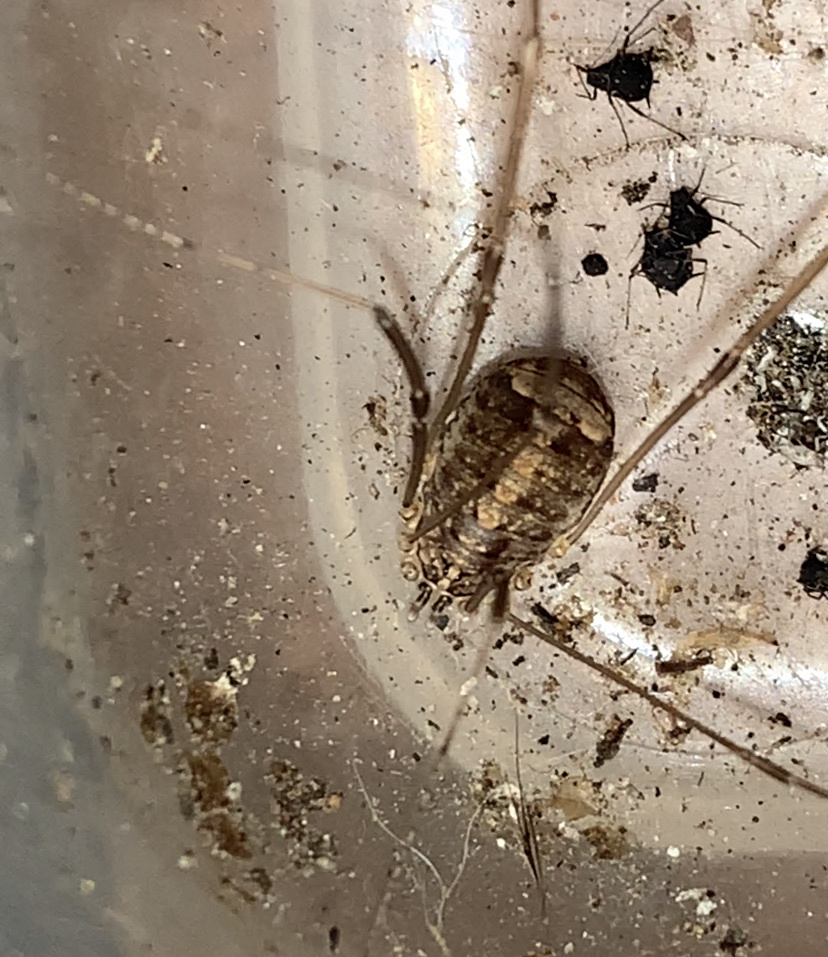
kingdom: Animalia
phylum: Arthropoda
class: Arachnida
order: Opiliones
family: Sclerosomatidae
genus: Nelima
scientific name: Nelima doriae
